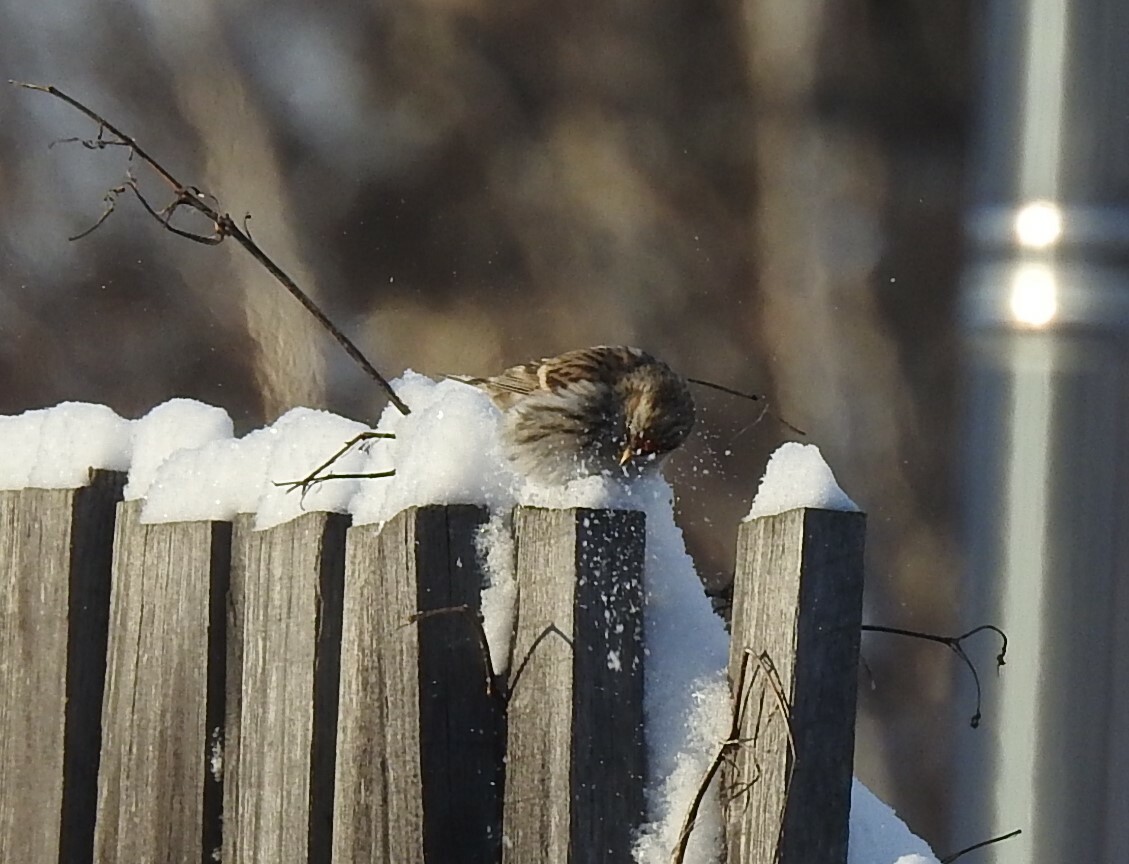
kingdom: Animalia
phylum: Chordata
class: Aves
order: Passeriformes
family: Fringillidae
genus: Acanthis
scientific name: Acanthis flammea
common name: Common redpoll
